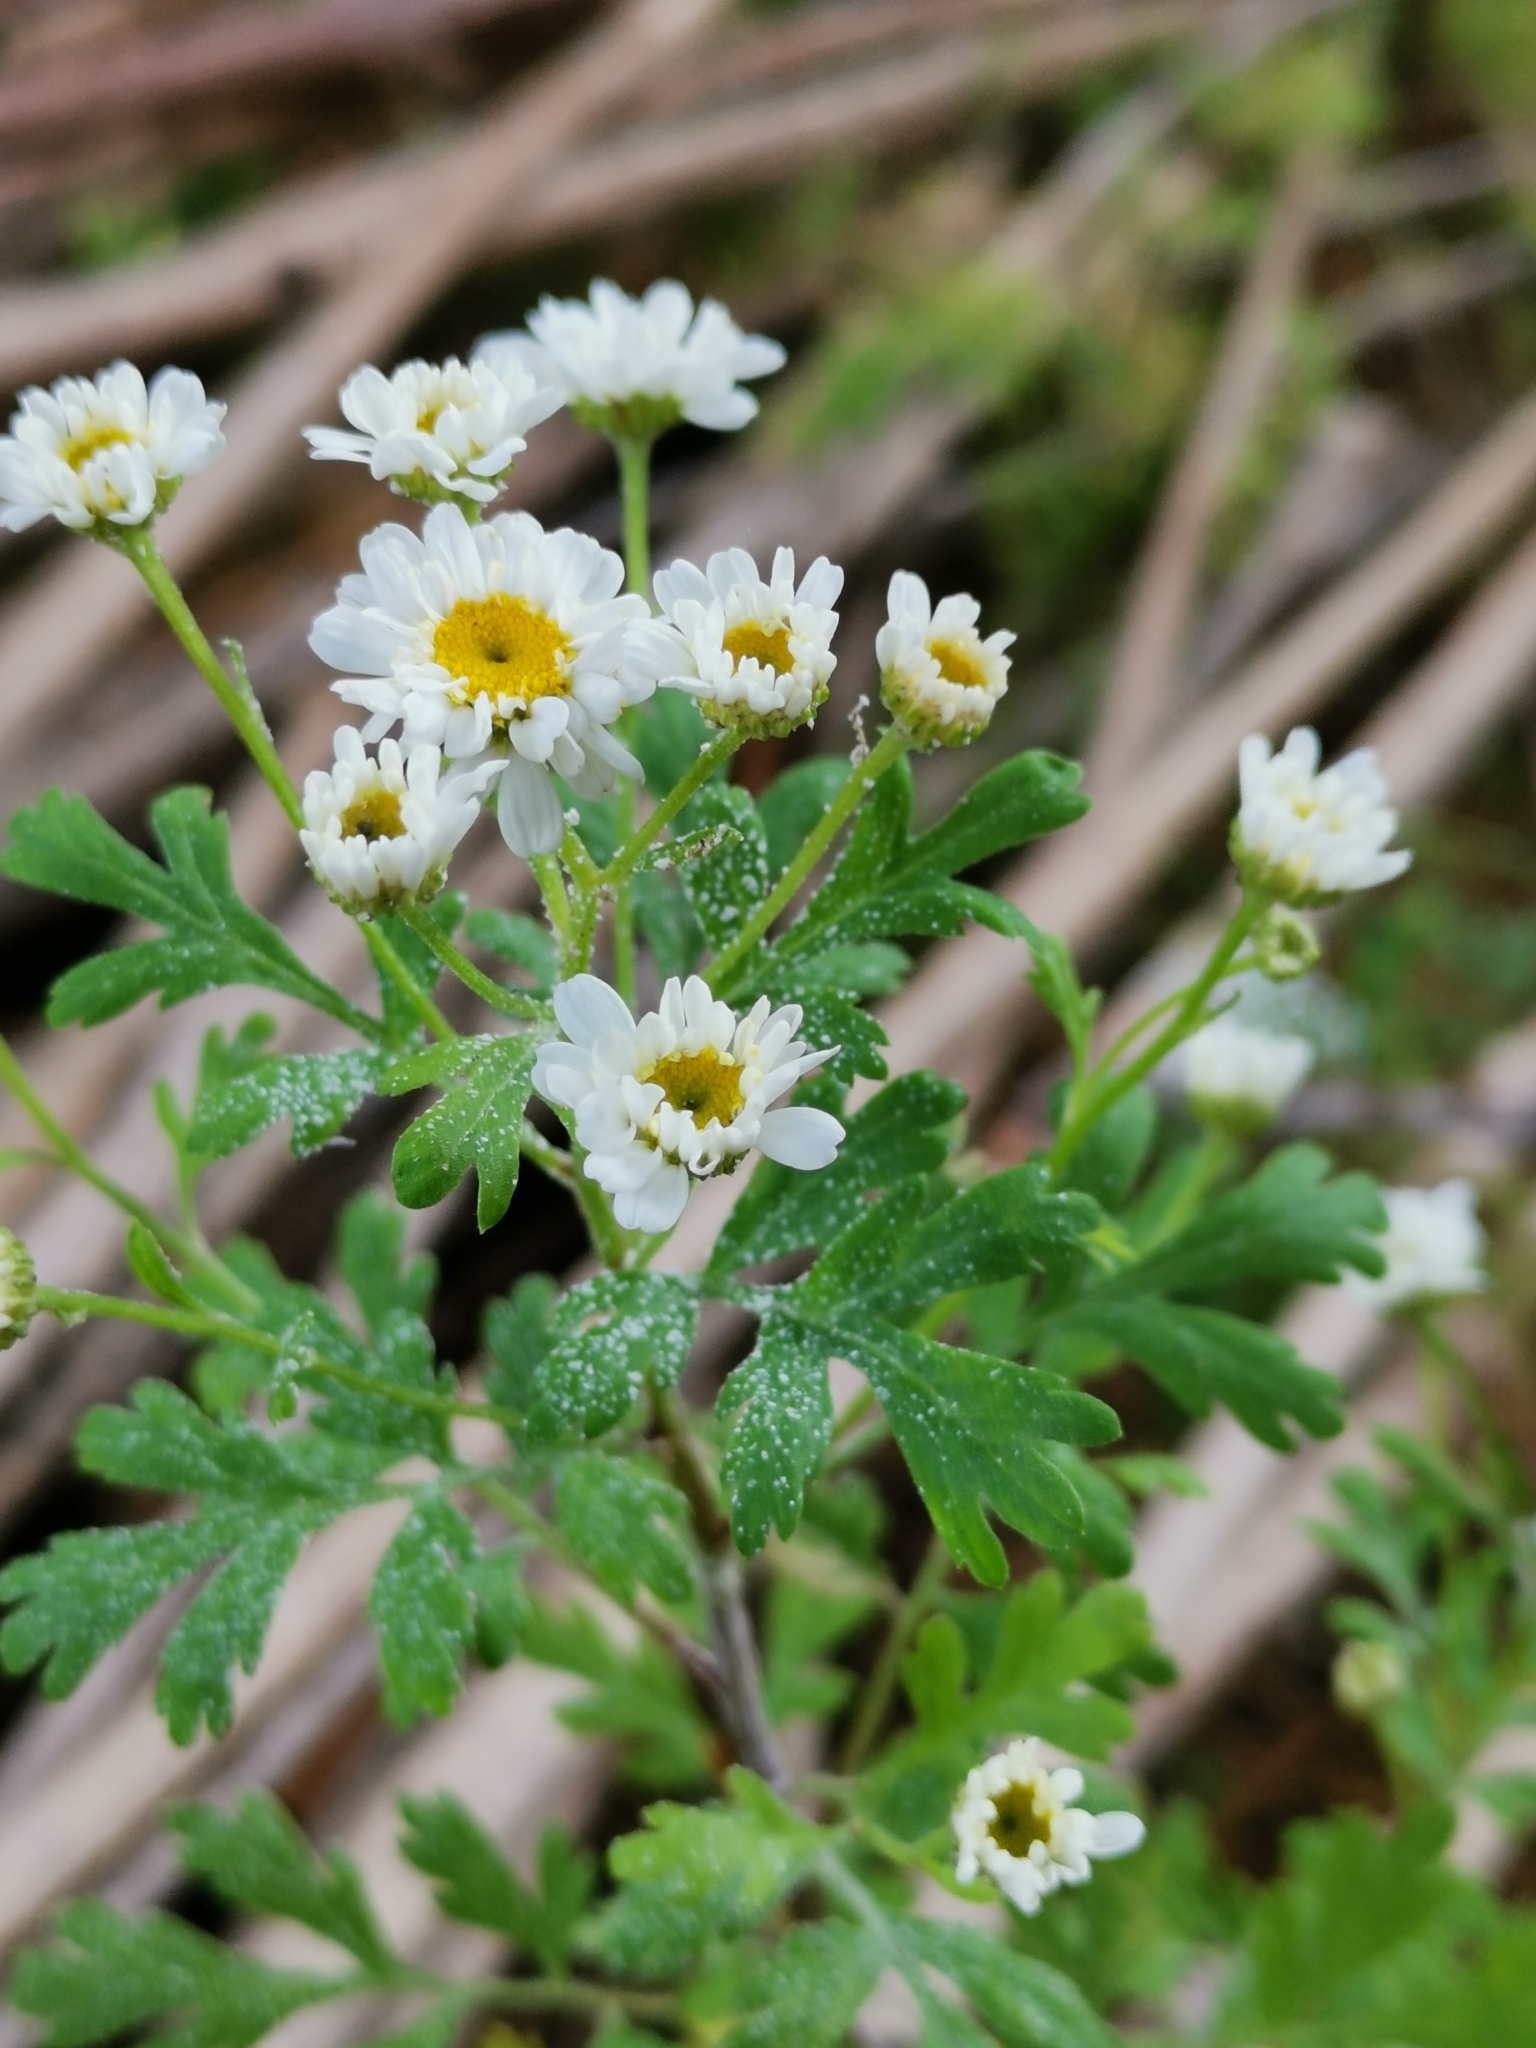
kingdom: Plantae
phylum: Tracheophyta
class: Magnoliopsida
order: Asterales
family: Asteraceae
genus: Tanacetum
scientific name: Tanacetum parthenium
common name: Feverfew
